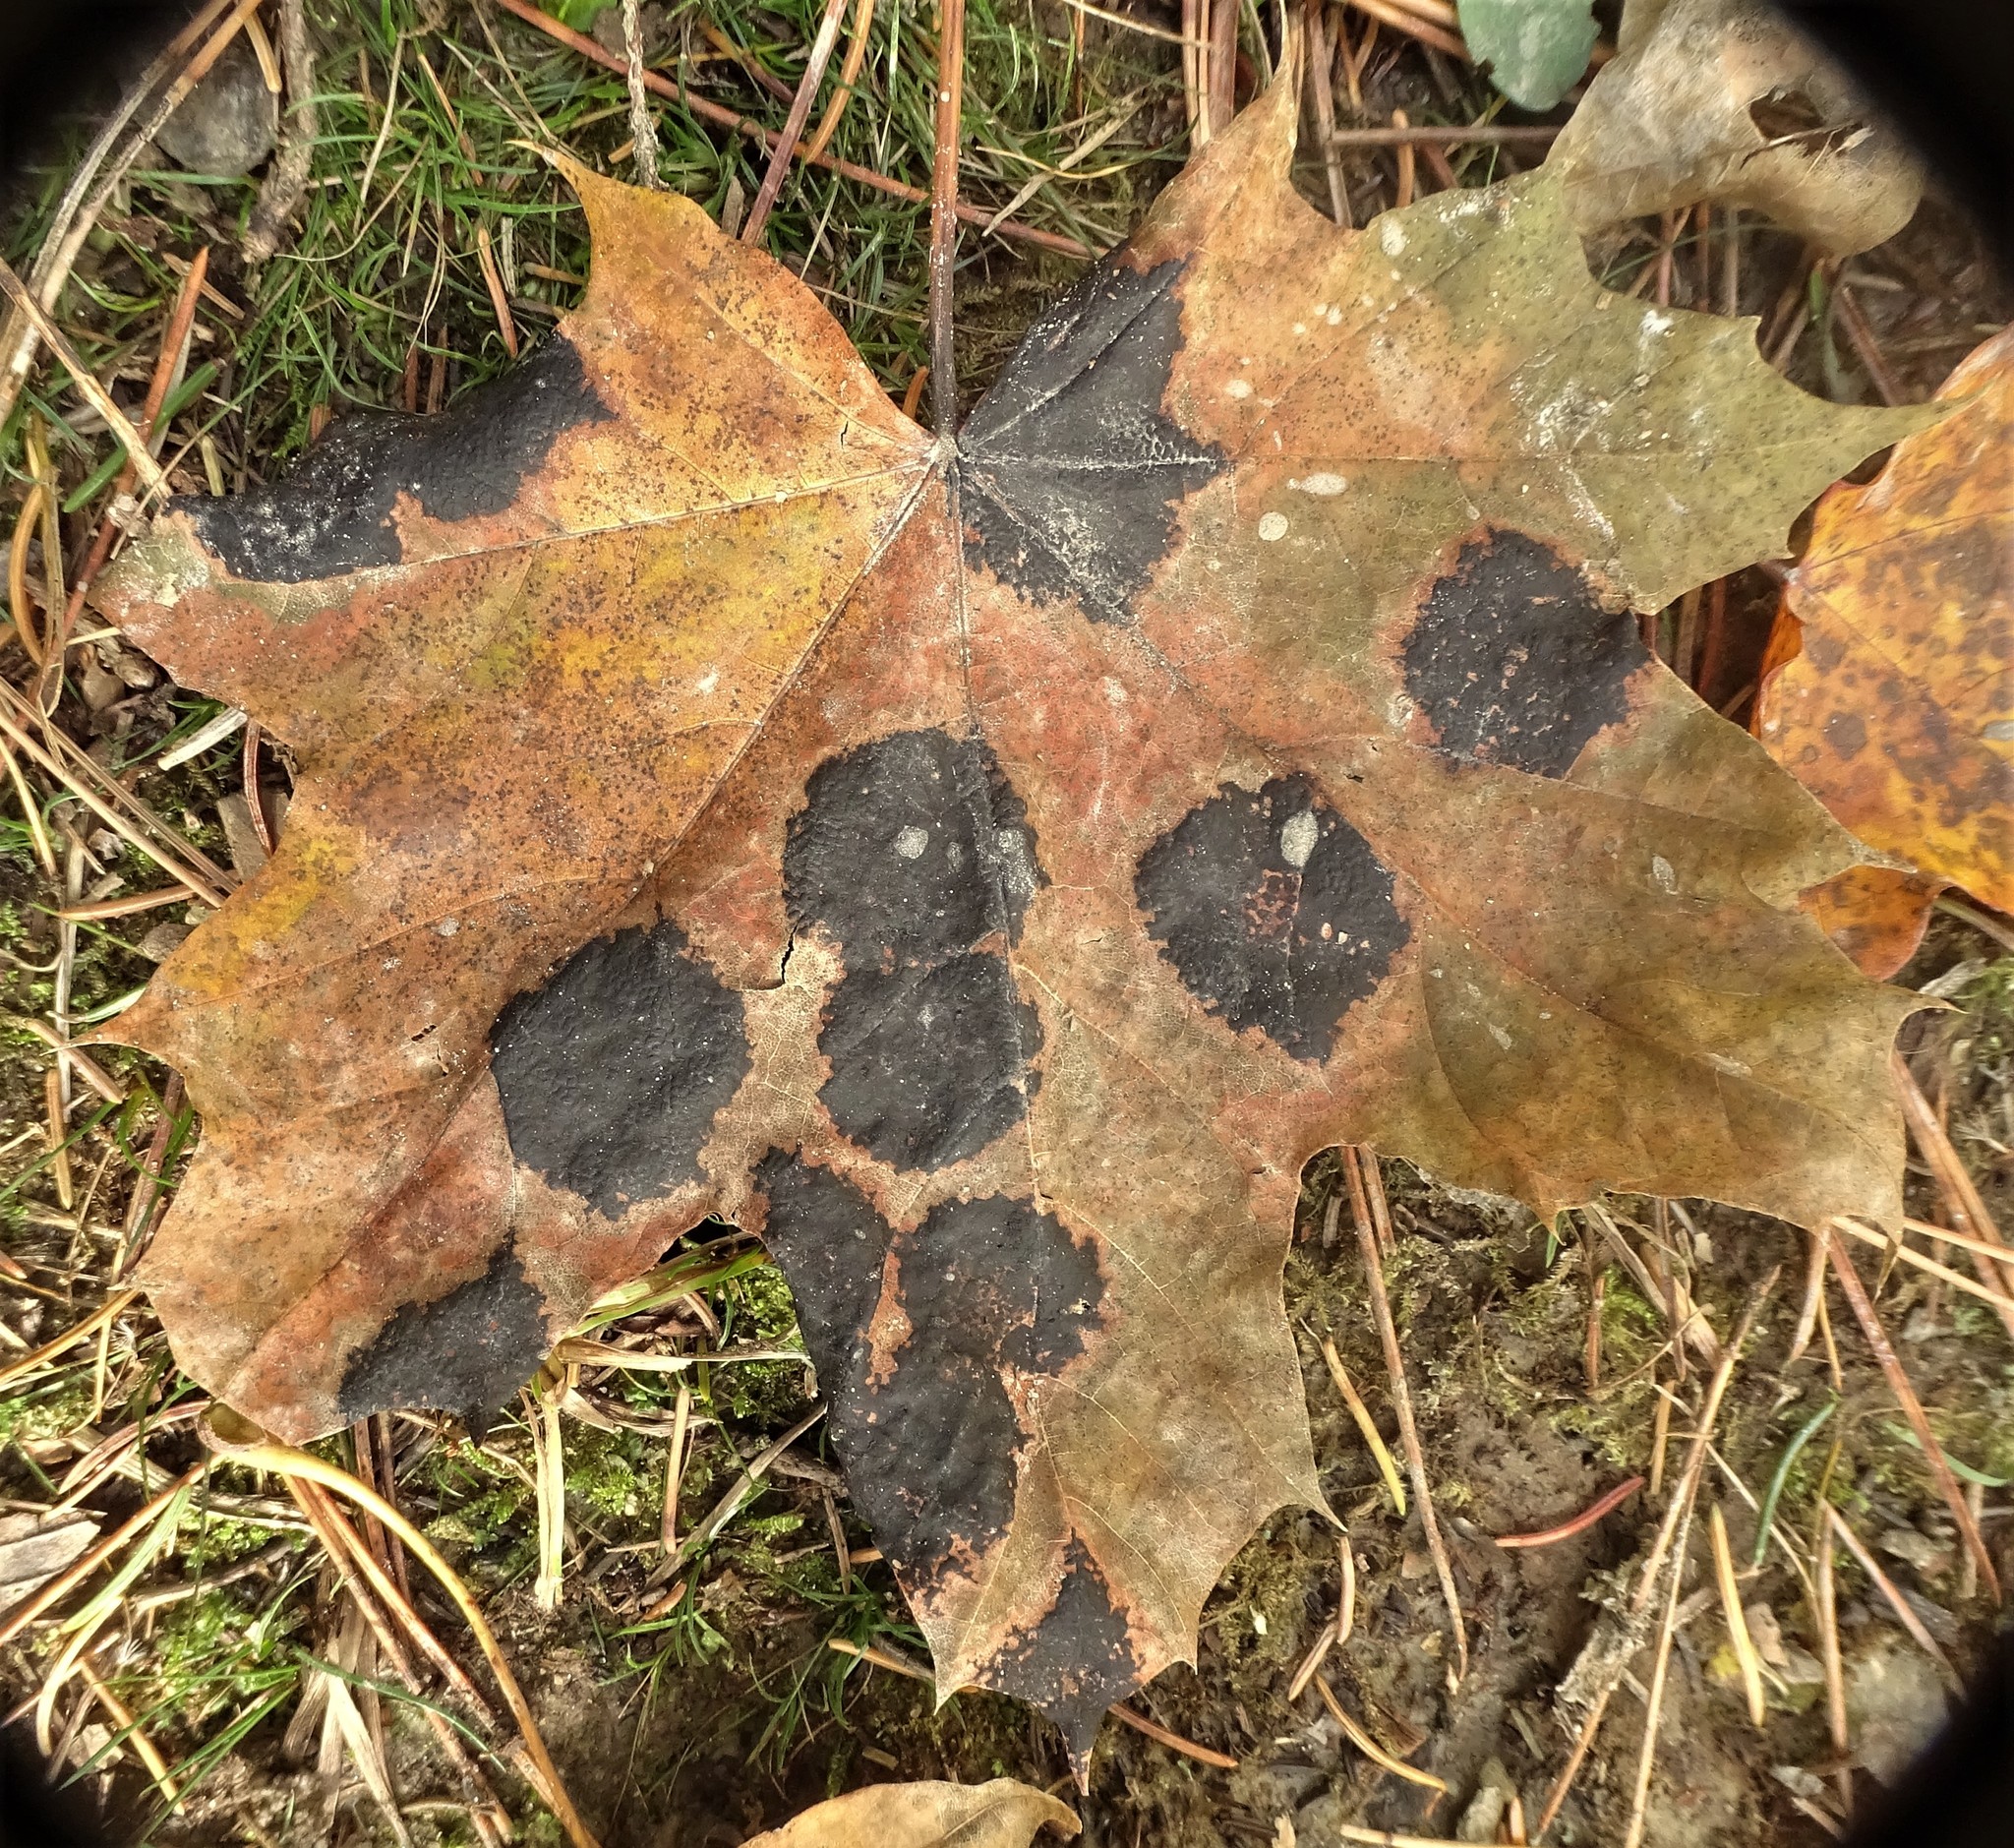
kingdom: Fungi
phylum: Ascomycota
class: Leotiomycetes
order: Rhytismatales
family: Rhytismataceae
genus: Rhytisma
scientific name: Rhytisma acerinum
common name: European tar spot
